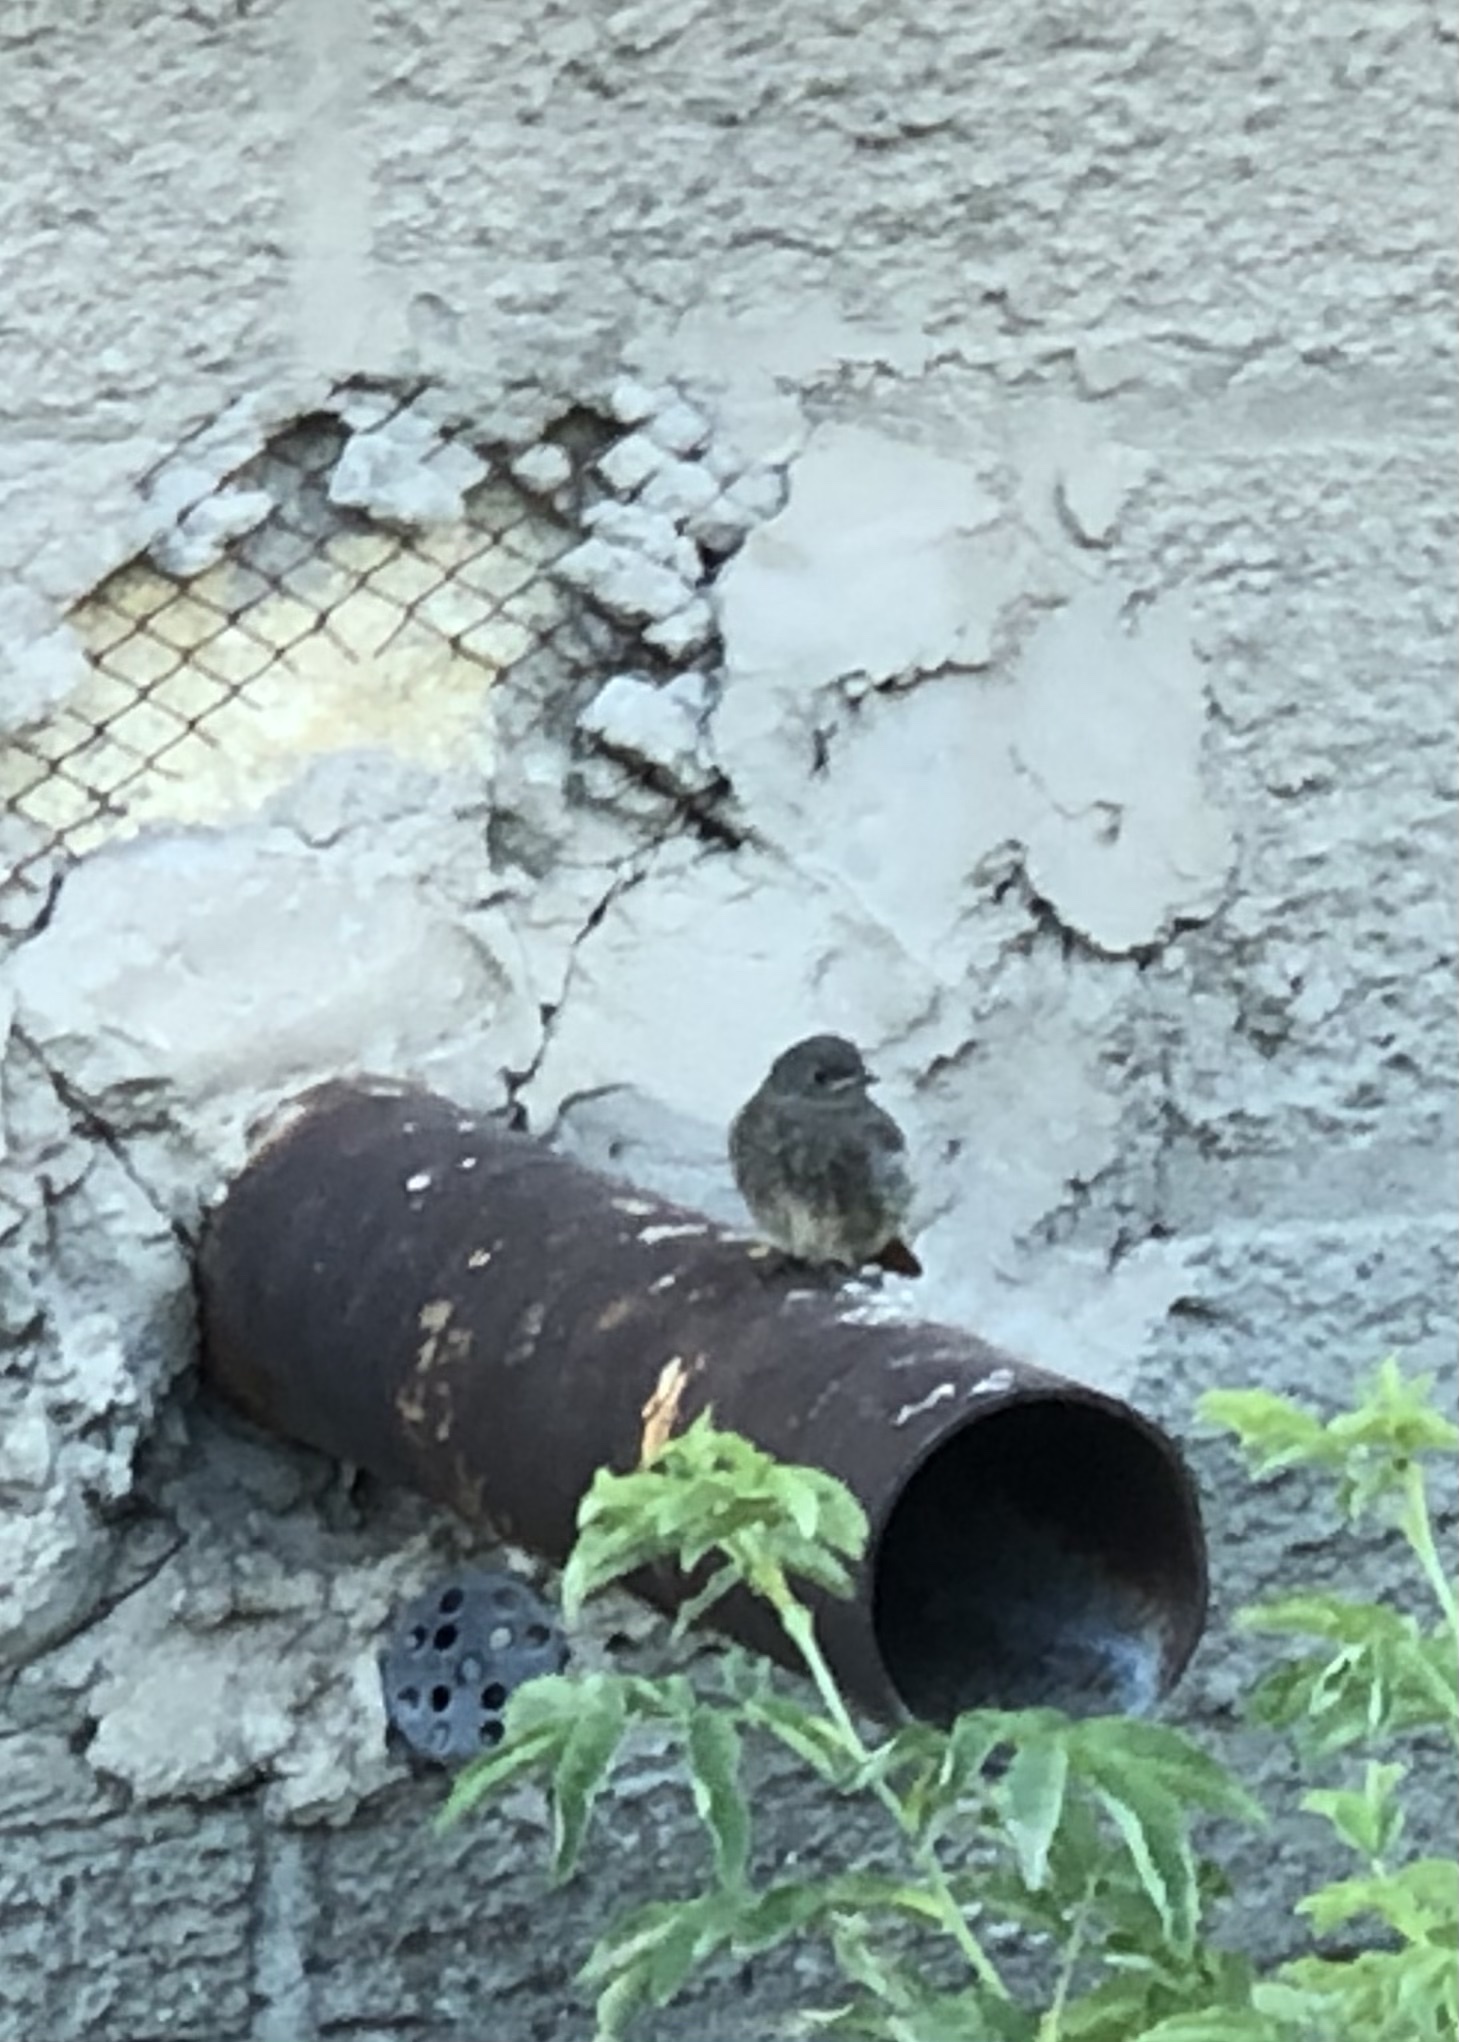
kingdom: Animalia
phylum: Chordata
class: Aves
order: Passeriformes
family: Muscicapidae
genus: Phoenicurus
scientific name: Phoenicurus ochruros
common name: Black redstart
